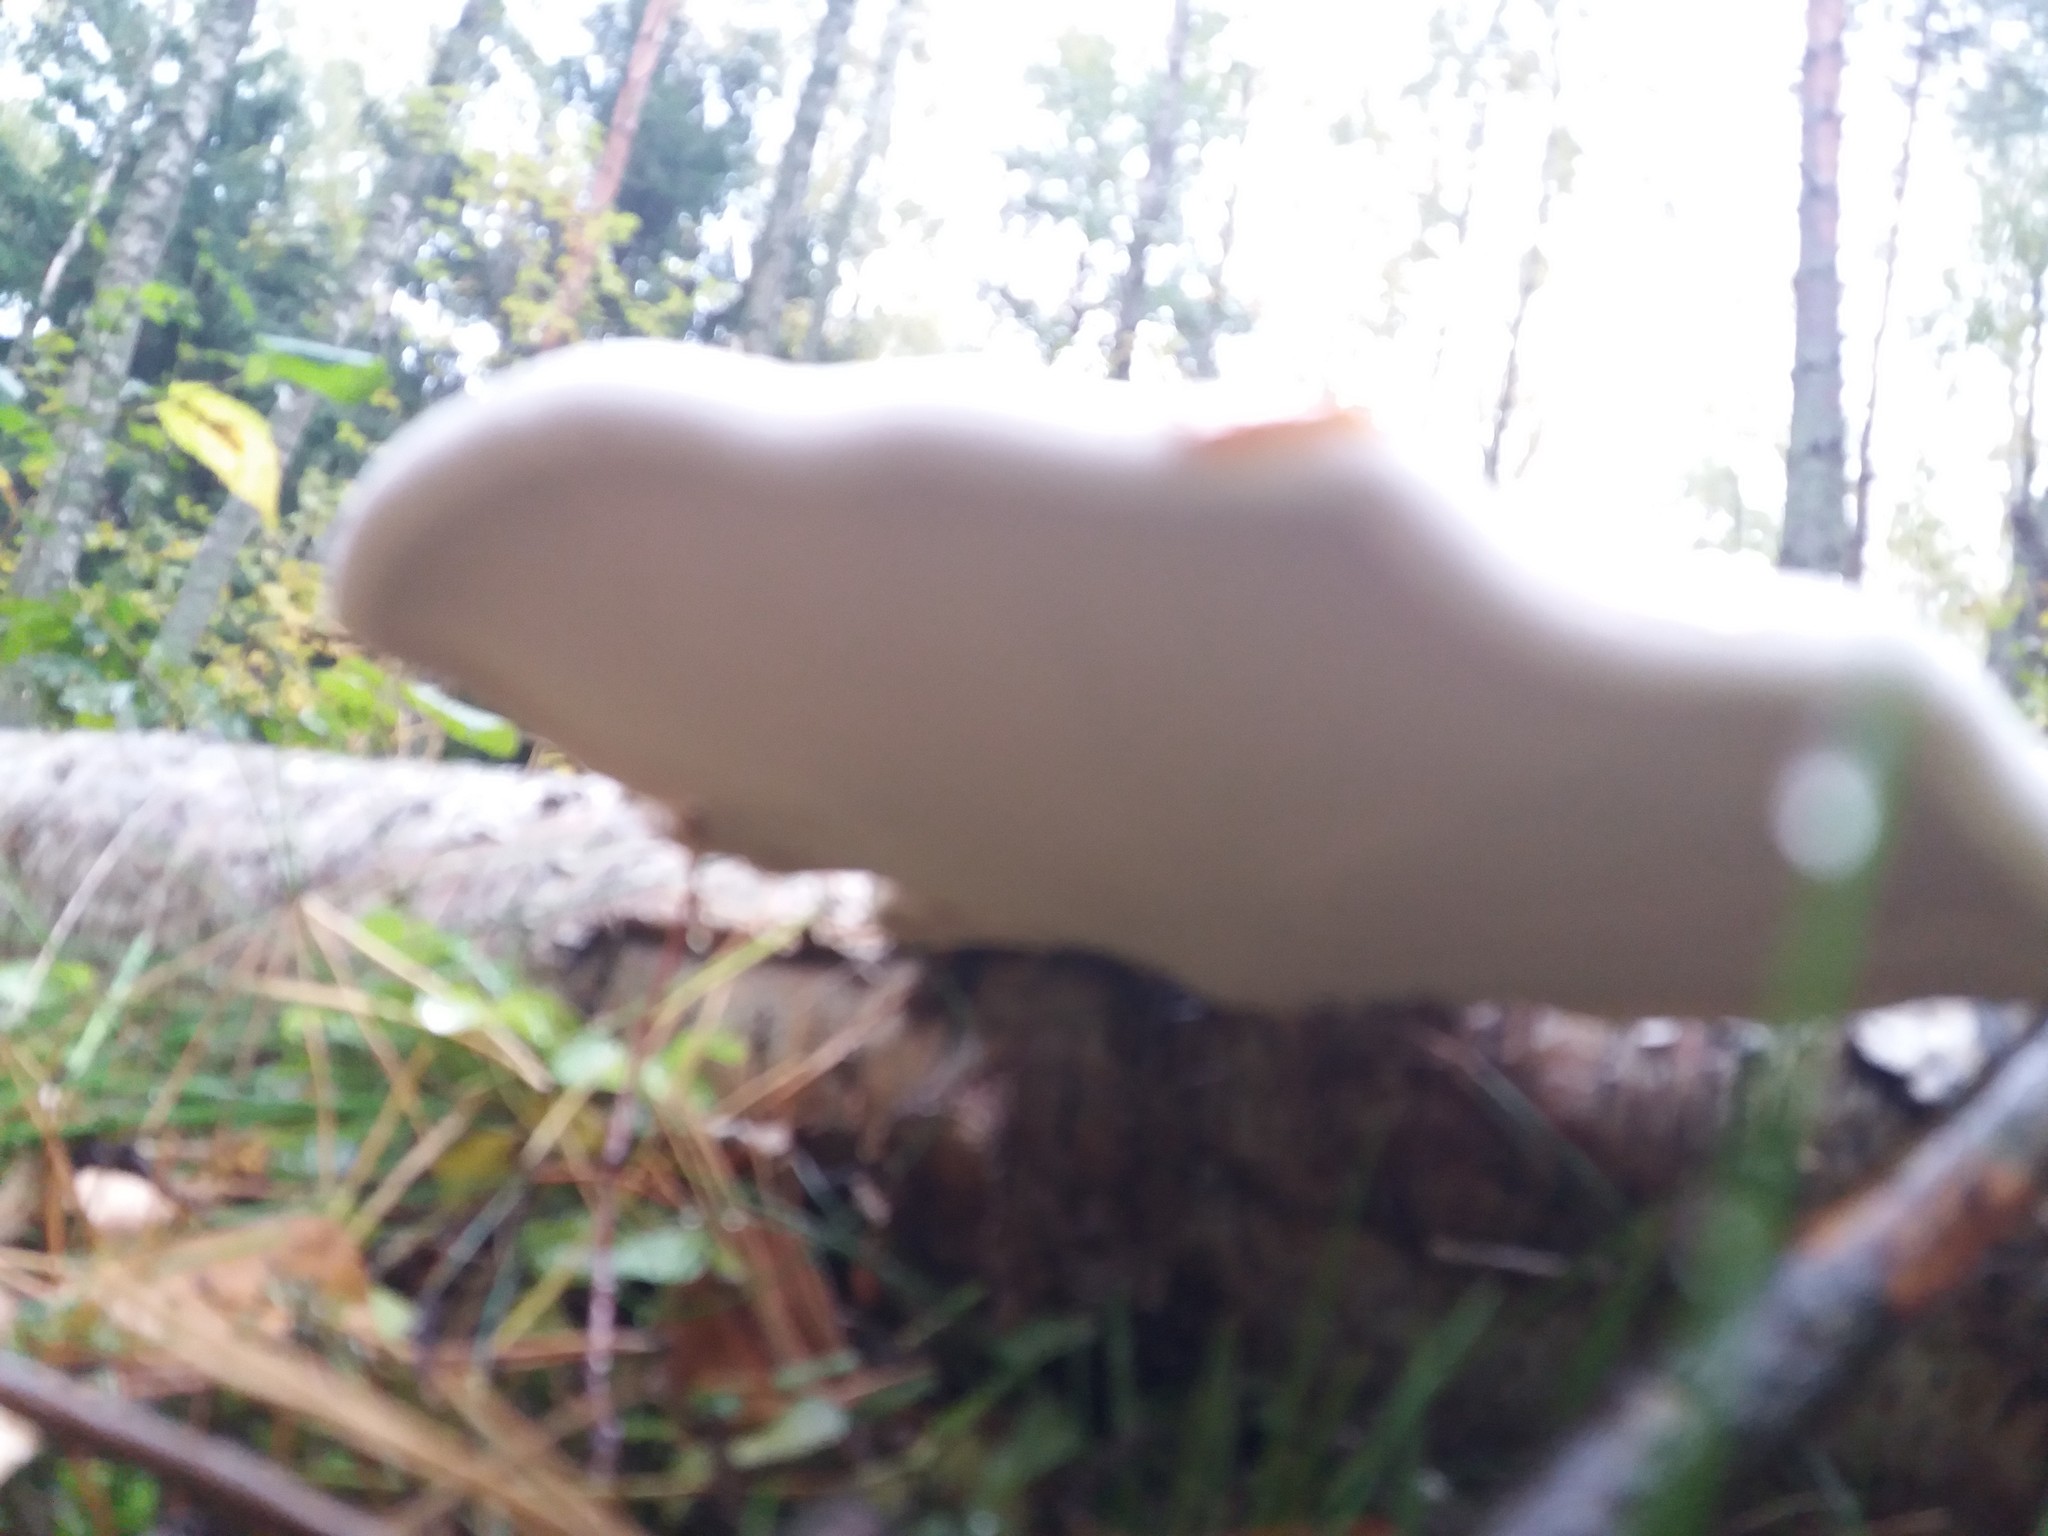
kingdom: Fungi
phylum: Basidiomycota
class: Agaricomycetes
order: Polyporales
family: Fomitopsidaceae
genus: Fomitopsis
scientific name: Fomitopsis betulina
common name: Birch polypore
